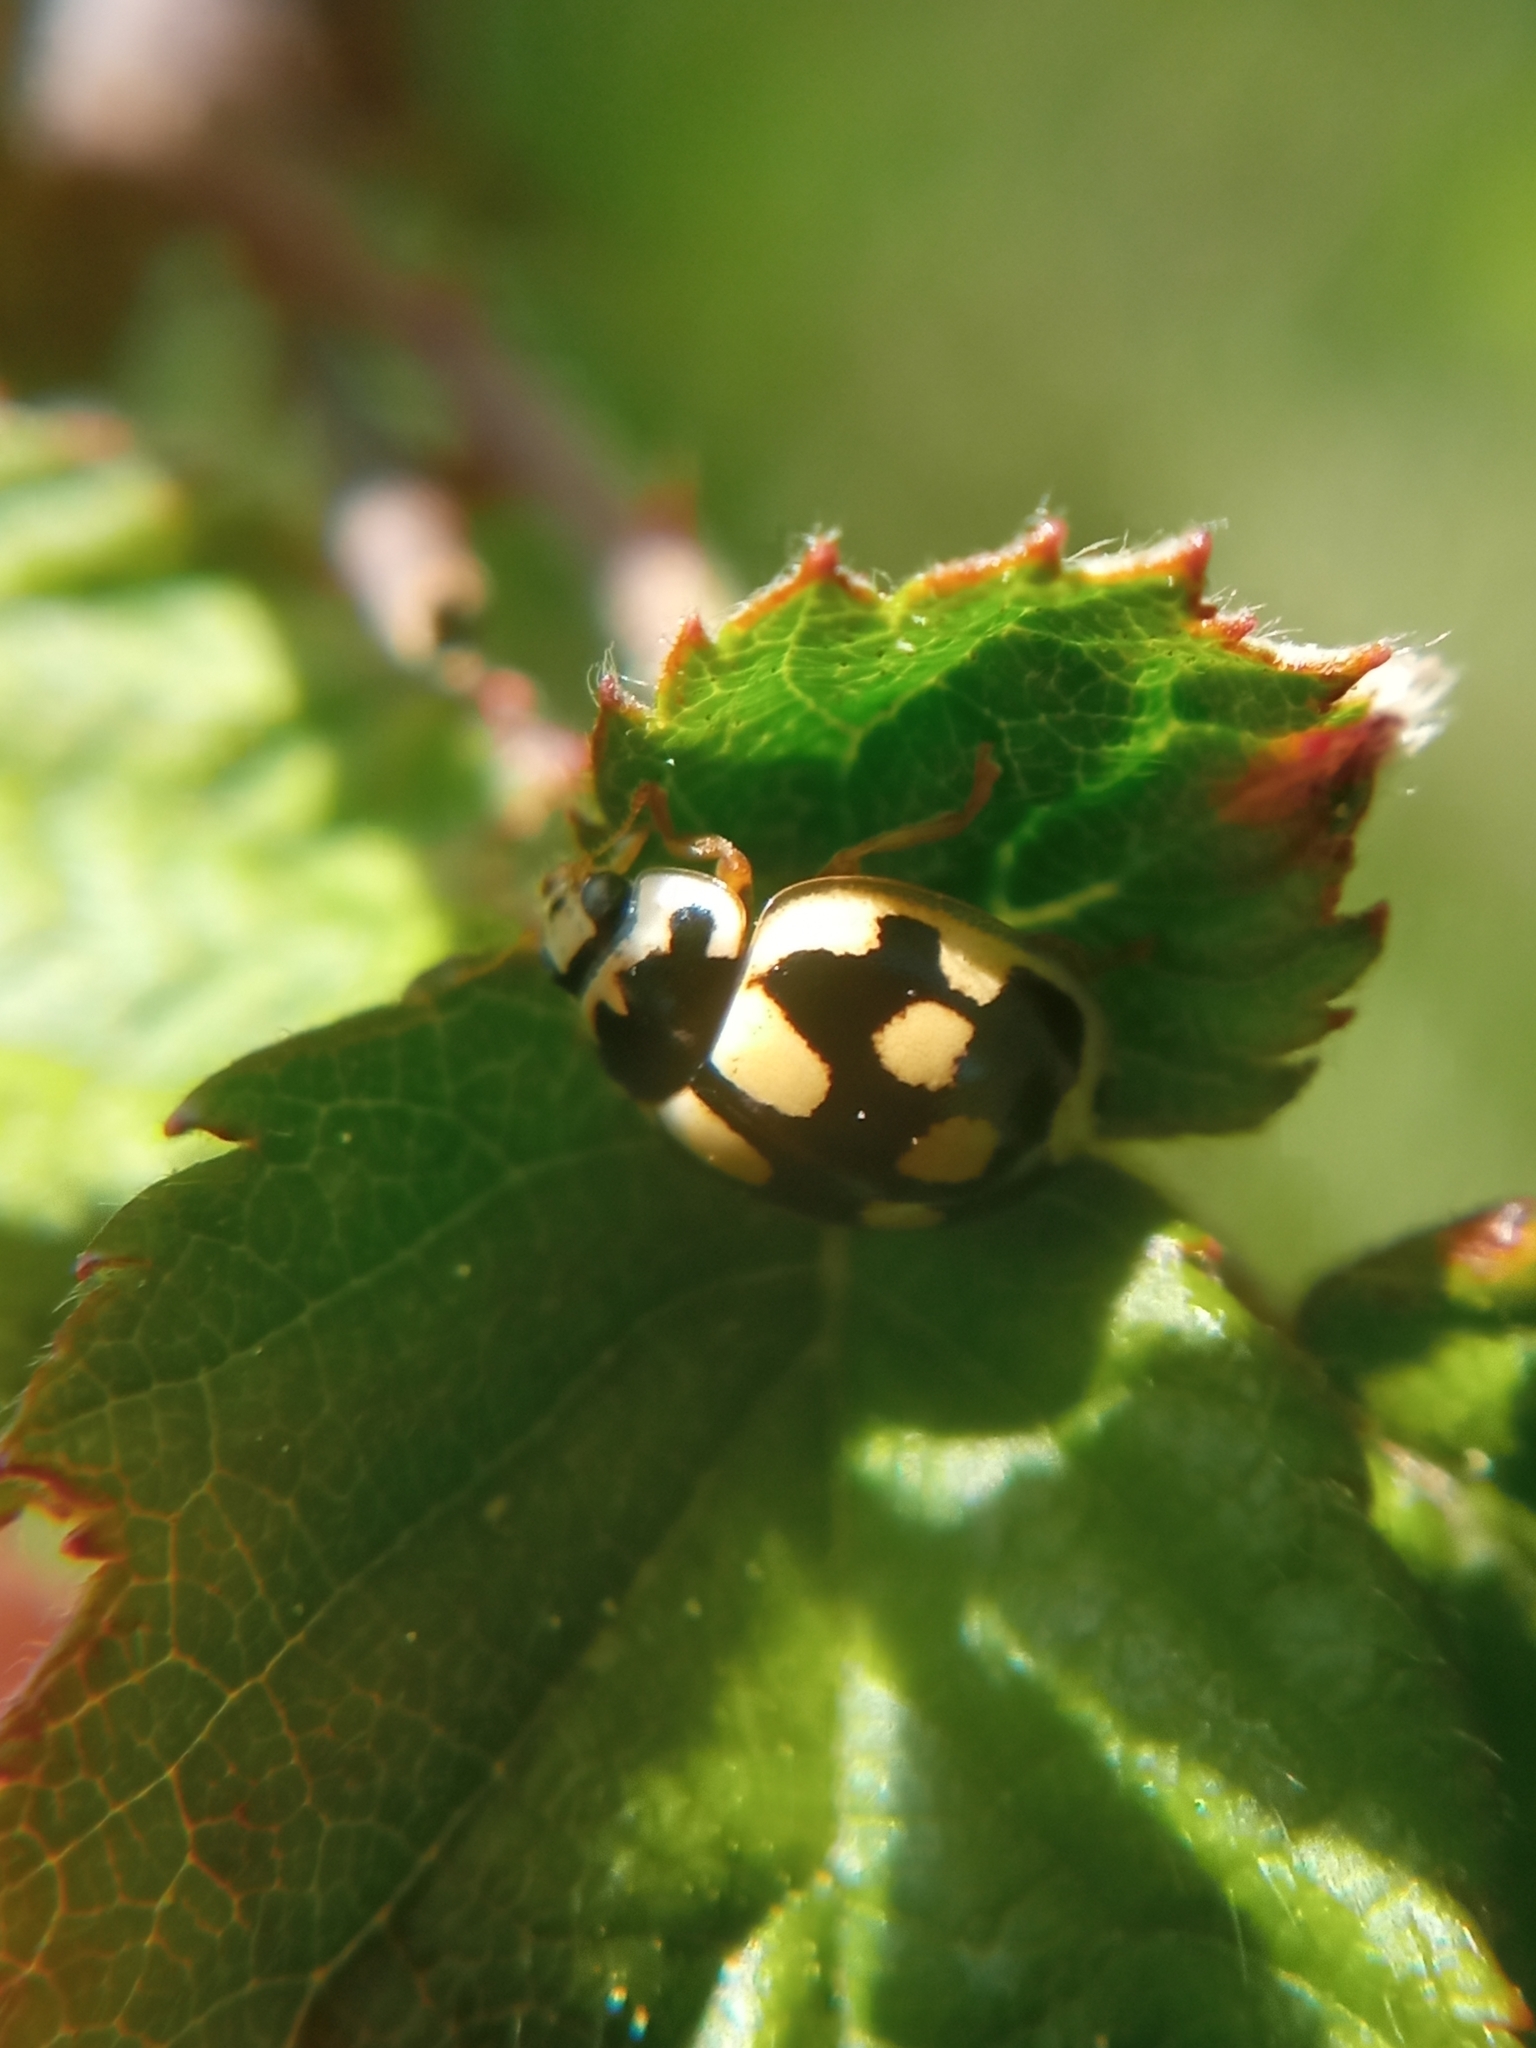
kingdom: Animalia
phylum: Arthropoda
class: Insecta
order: Coleoptera
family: Coccinellidae
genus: Propylaea
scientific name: Propylaea quatuordecimpunctata
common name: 14-spotted ladybird beetle
